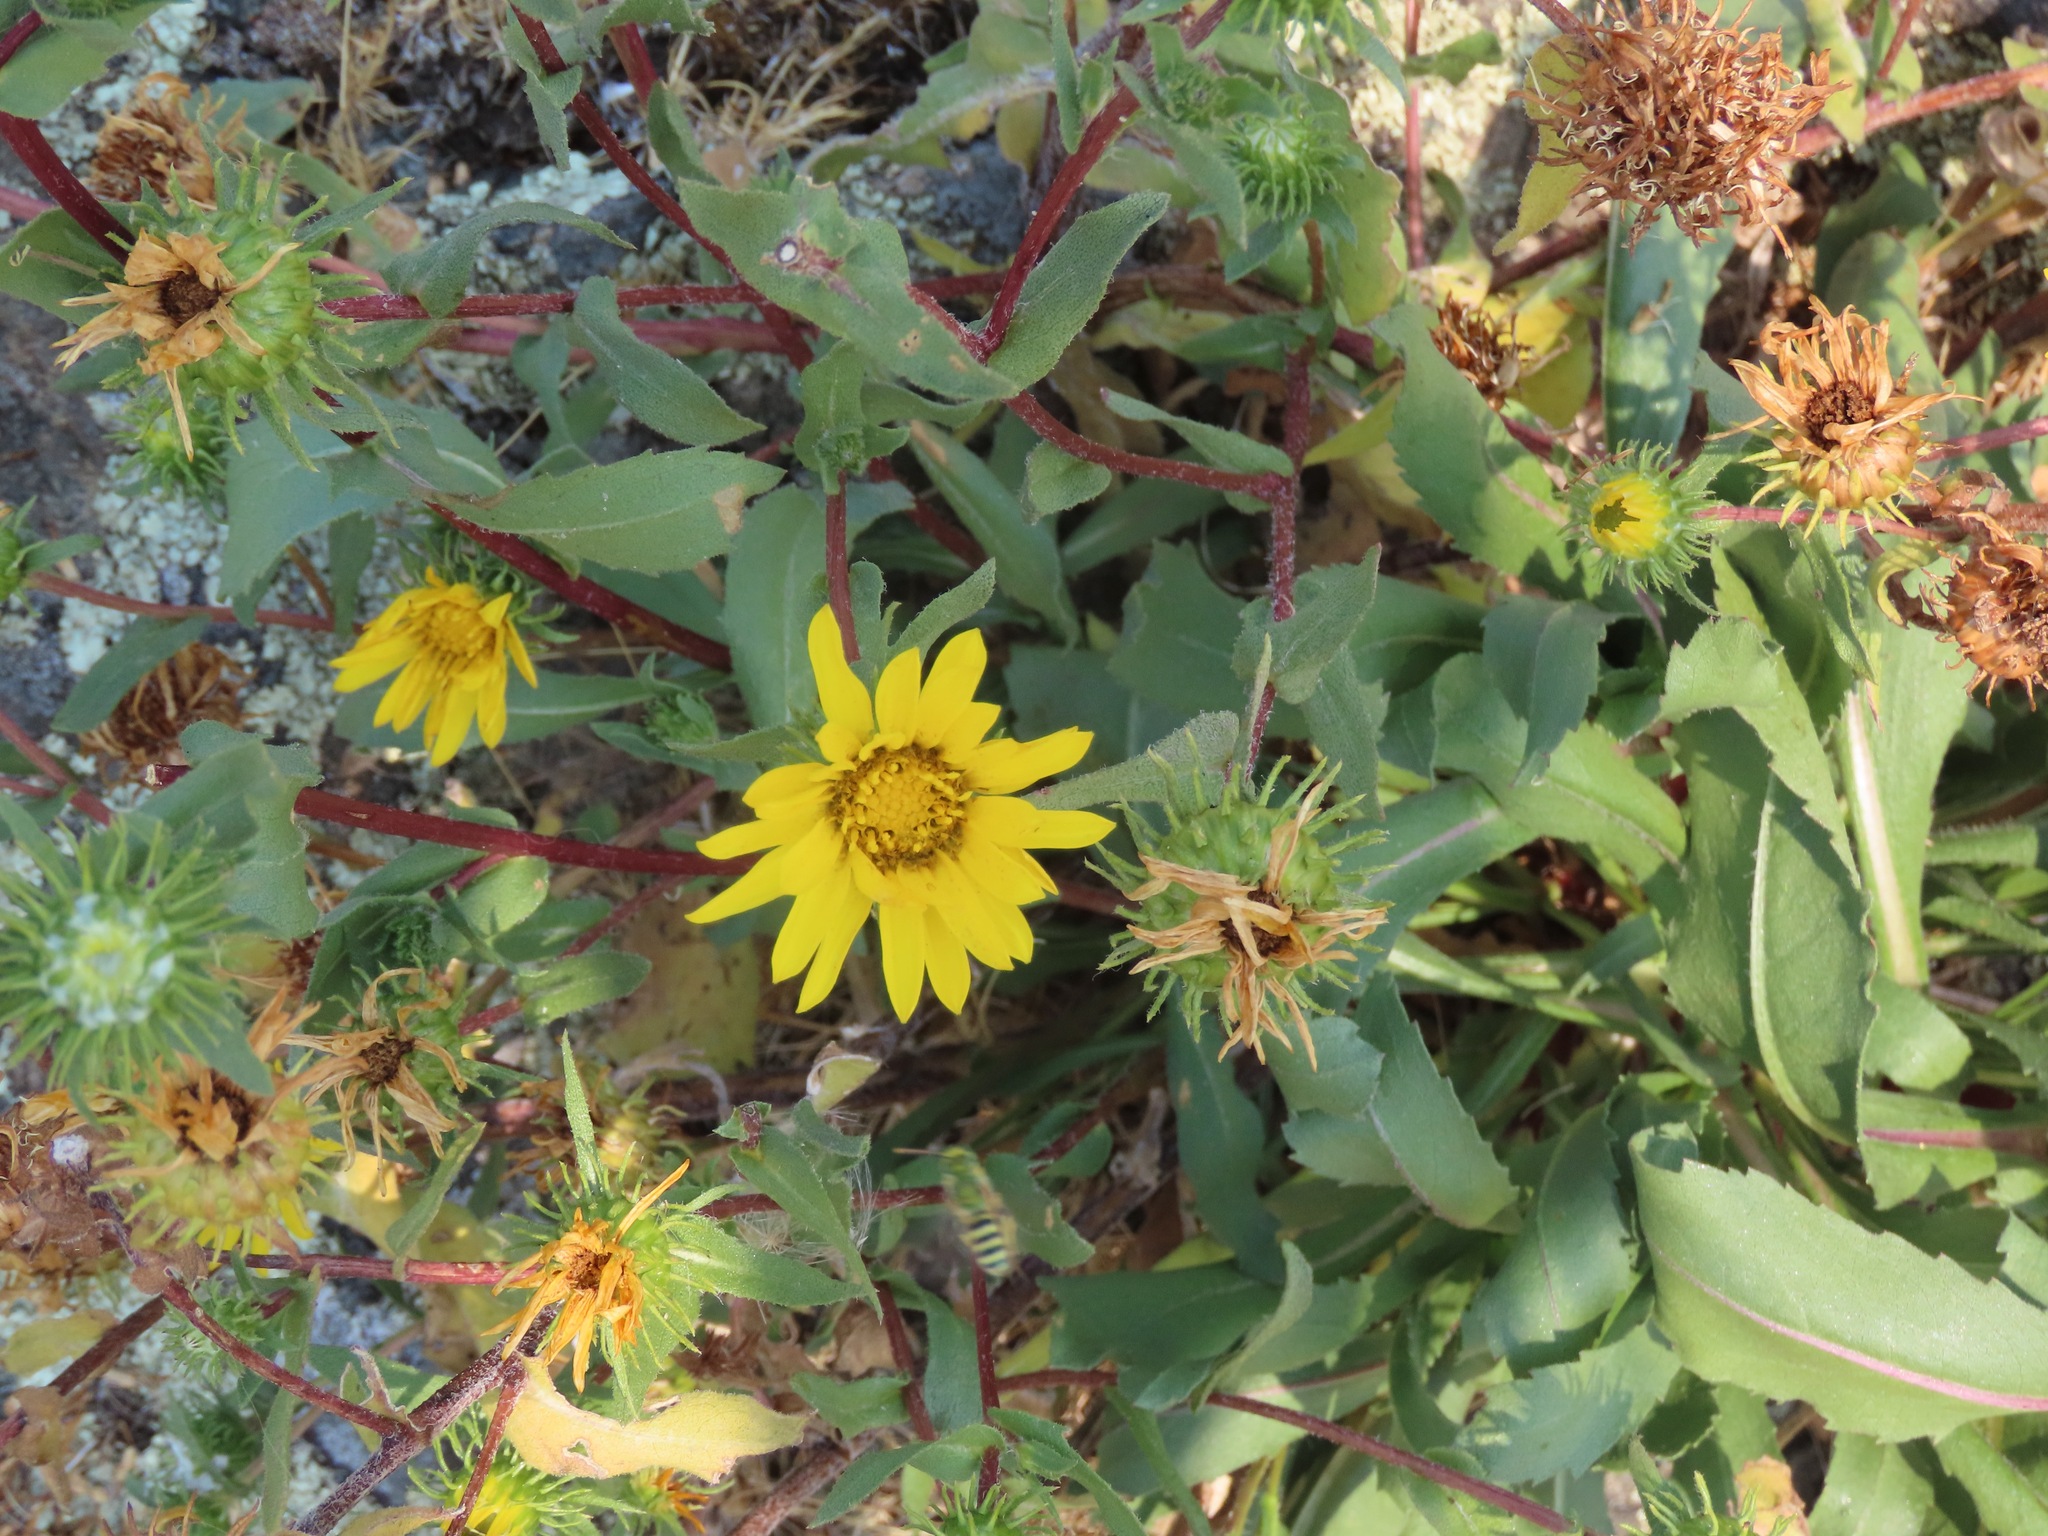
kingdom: Plantae
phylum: Tracheophyta
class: Magnoliopsida
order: Asterales
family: Asteraceae
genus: Grindelia
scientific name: Grindelia hirsutula
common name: Hairy gumweed
